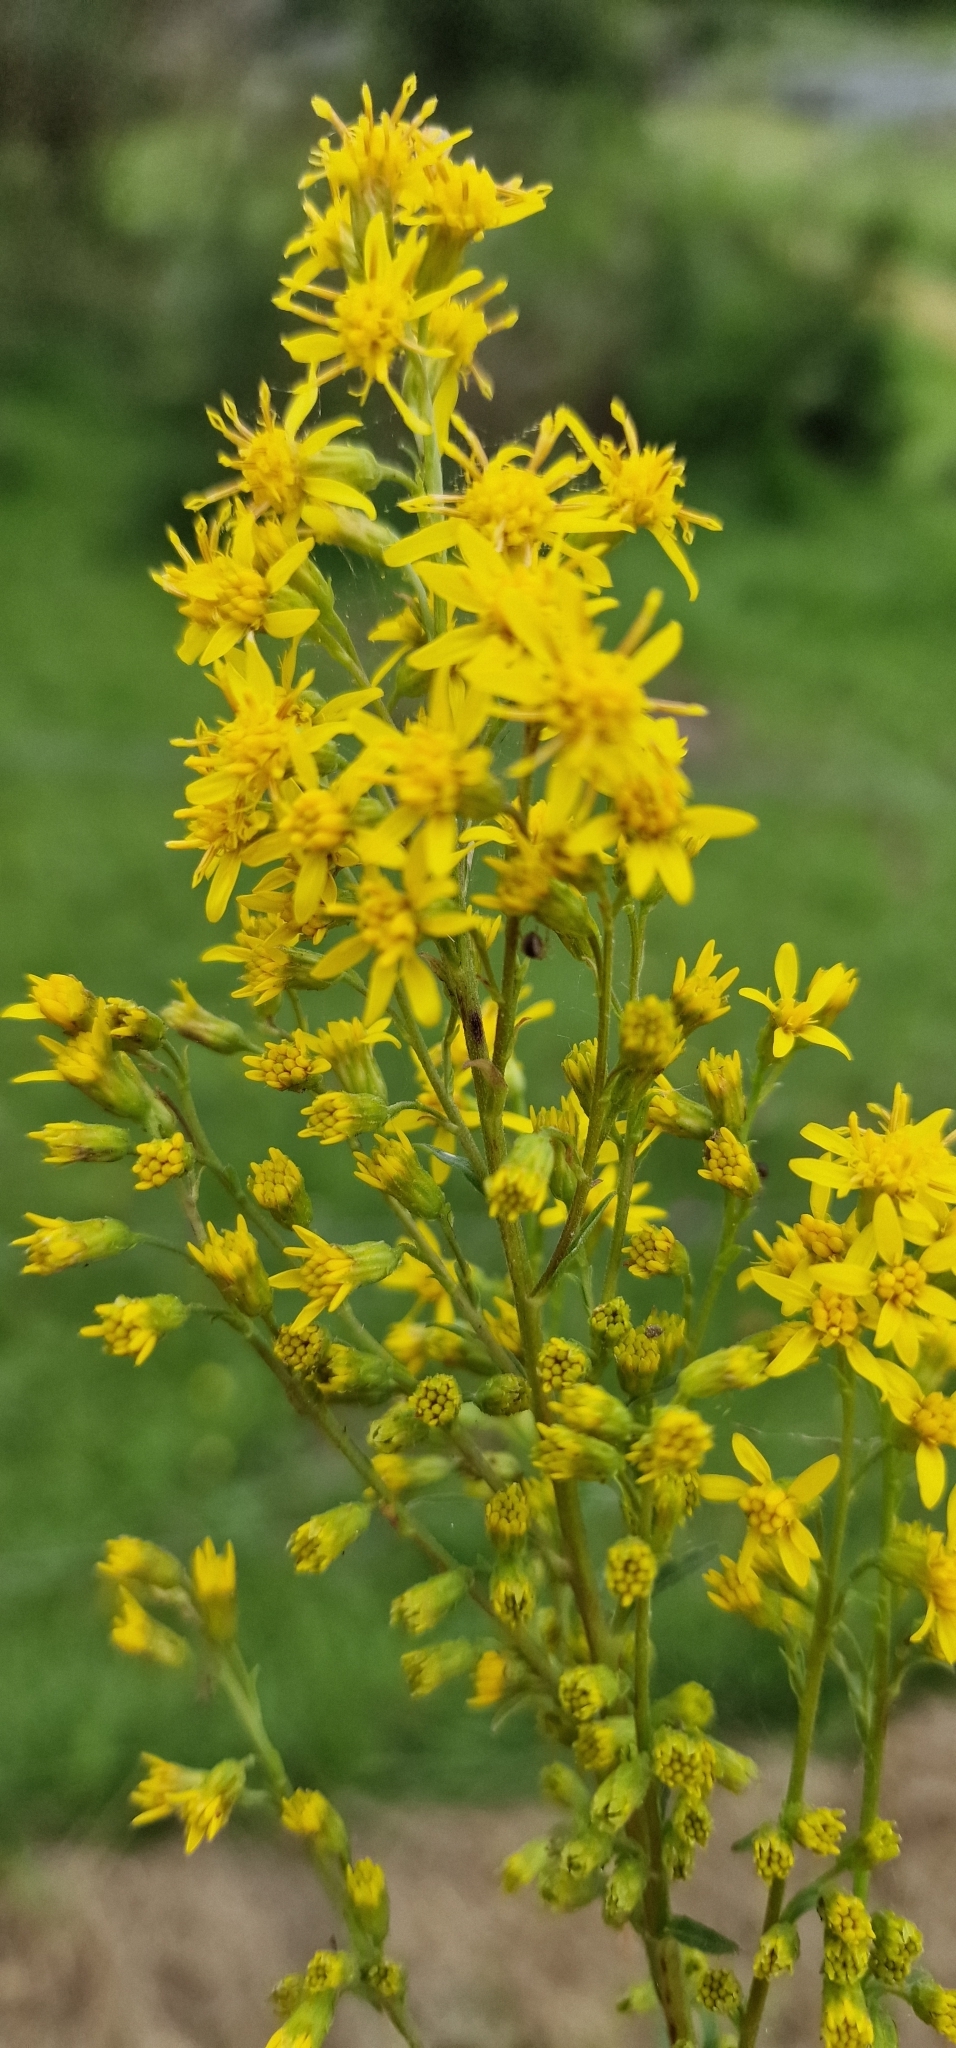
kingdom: Plantae
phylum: Tracheophyta
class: Magnoliopsida
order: Asterales
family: Asteraceae
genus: Solidago
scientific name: Solidago virgaurea
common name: Goldenrod
